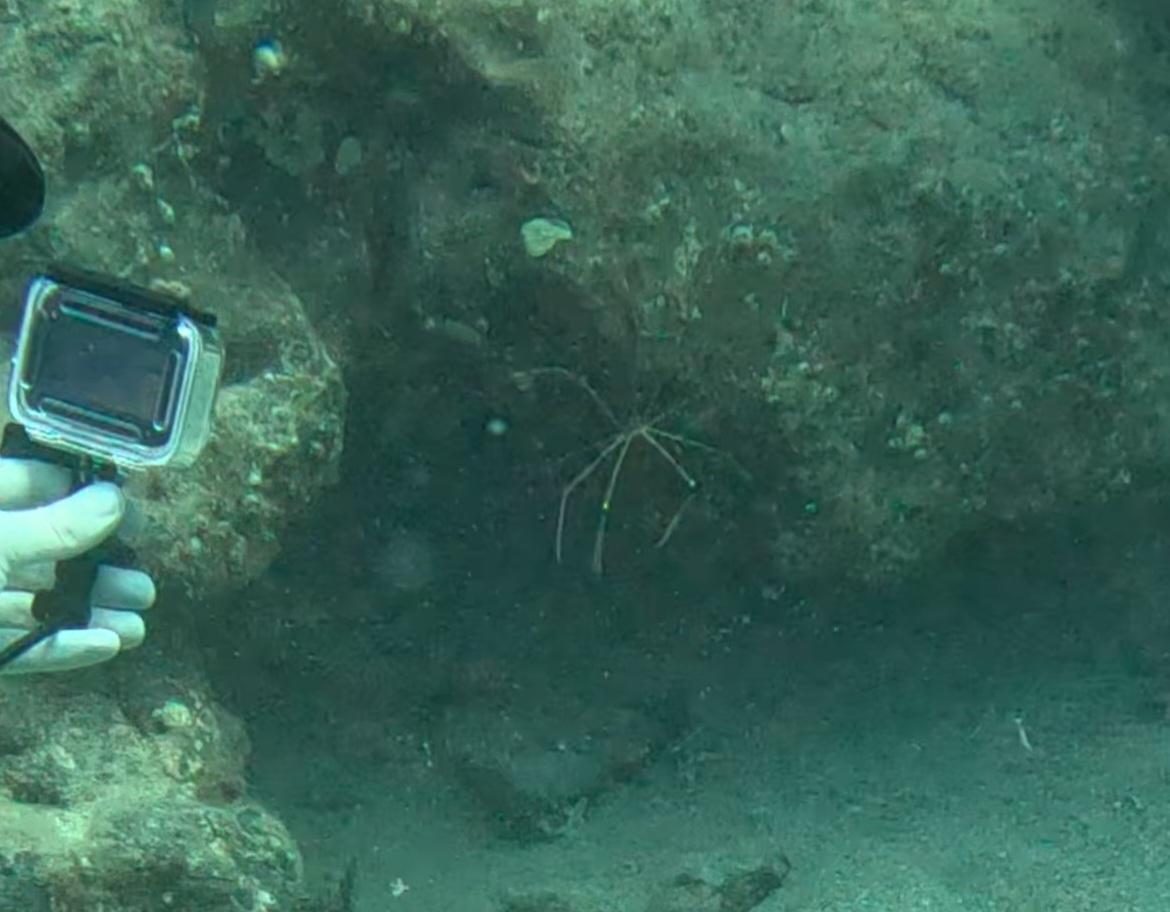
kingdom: Animalia
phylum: Arthropoda
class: Malacostraca
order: Decapoda
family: Inachoididae
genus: Stenorhynchus
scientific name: Stenorhynchus lanceolatus
